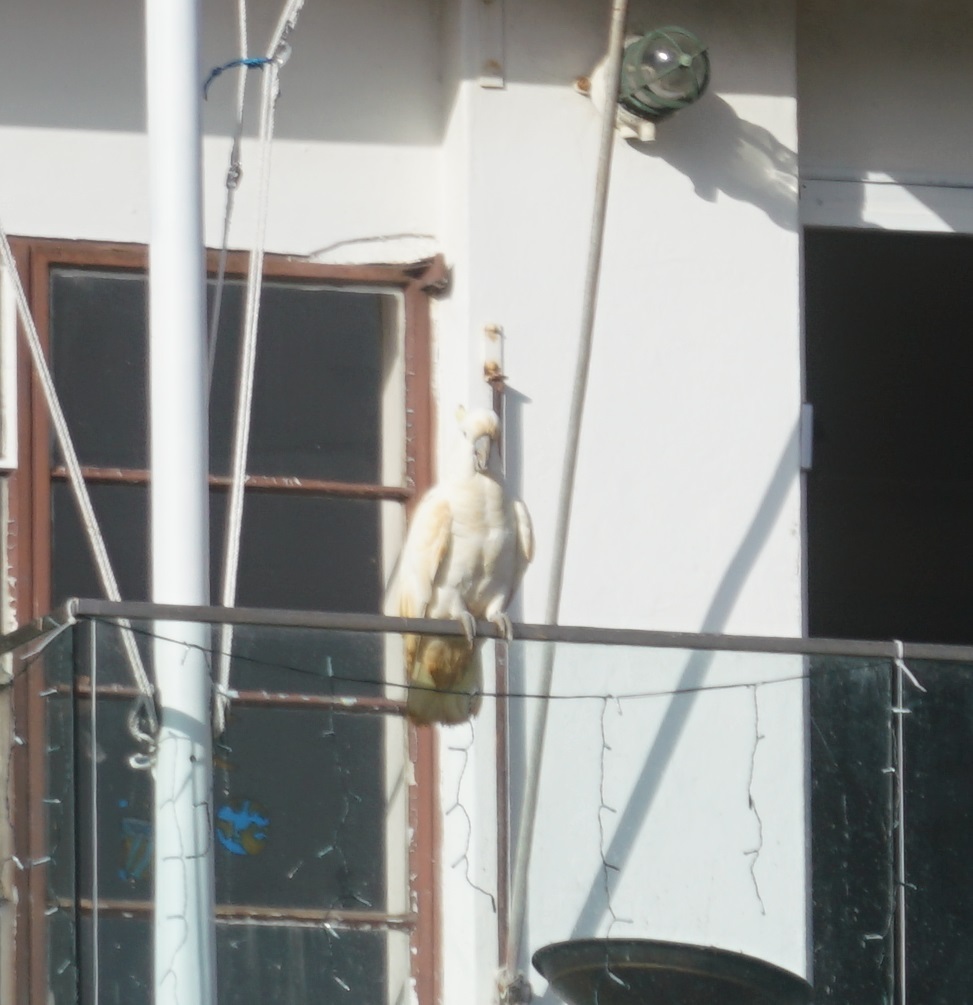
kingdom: Animalia
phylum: Chordata
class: Aves
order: Psittaciformes
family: Psittacidae
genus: Cacatua
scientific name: Cacatua galerita
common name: Sulphur-crested cockatoo
